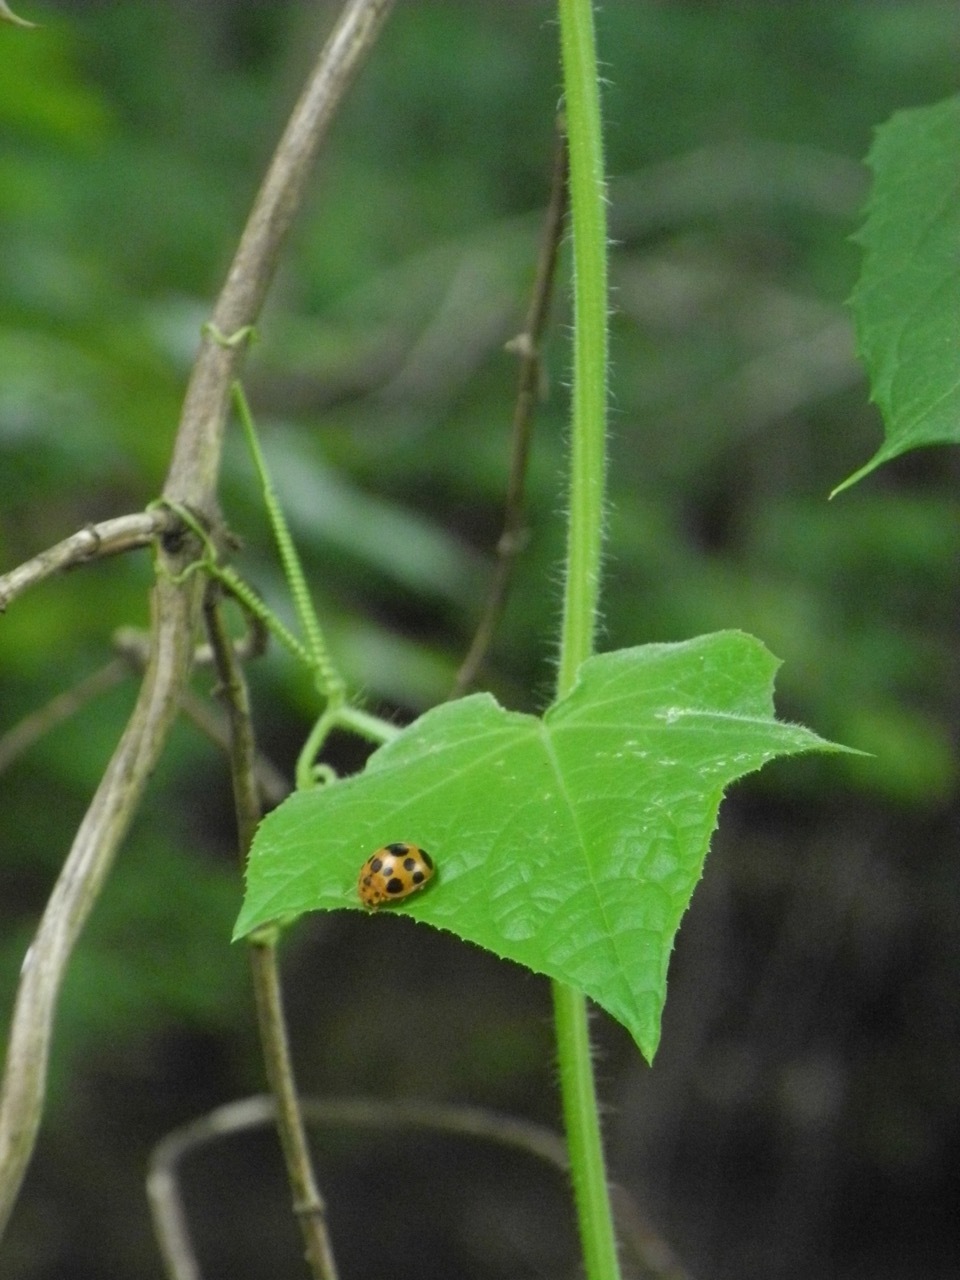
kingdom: Plantae
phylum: Tracheophyta
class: Magnoliopsida
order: Cucurbitales
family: Cucurbitaceae
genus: Sicyos
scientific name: Sicyos angulatus
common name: Angled burr cucumber
